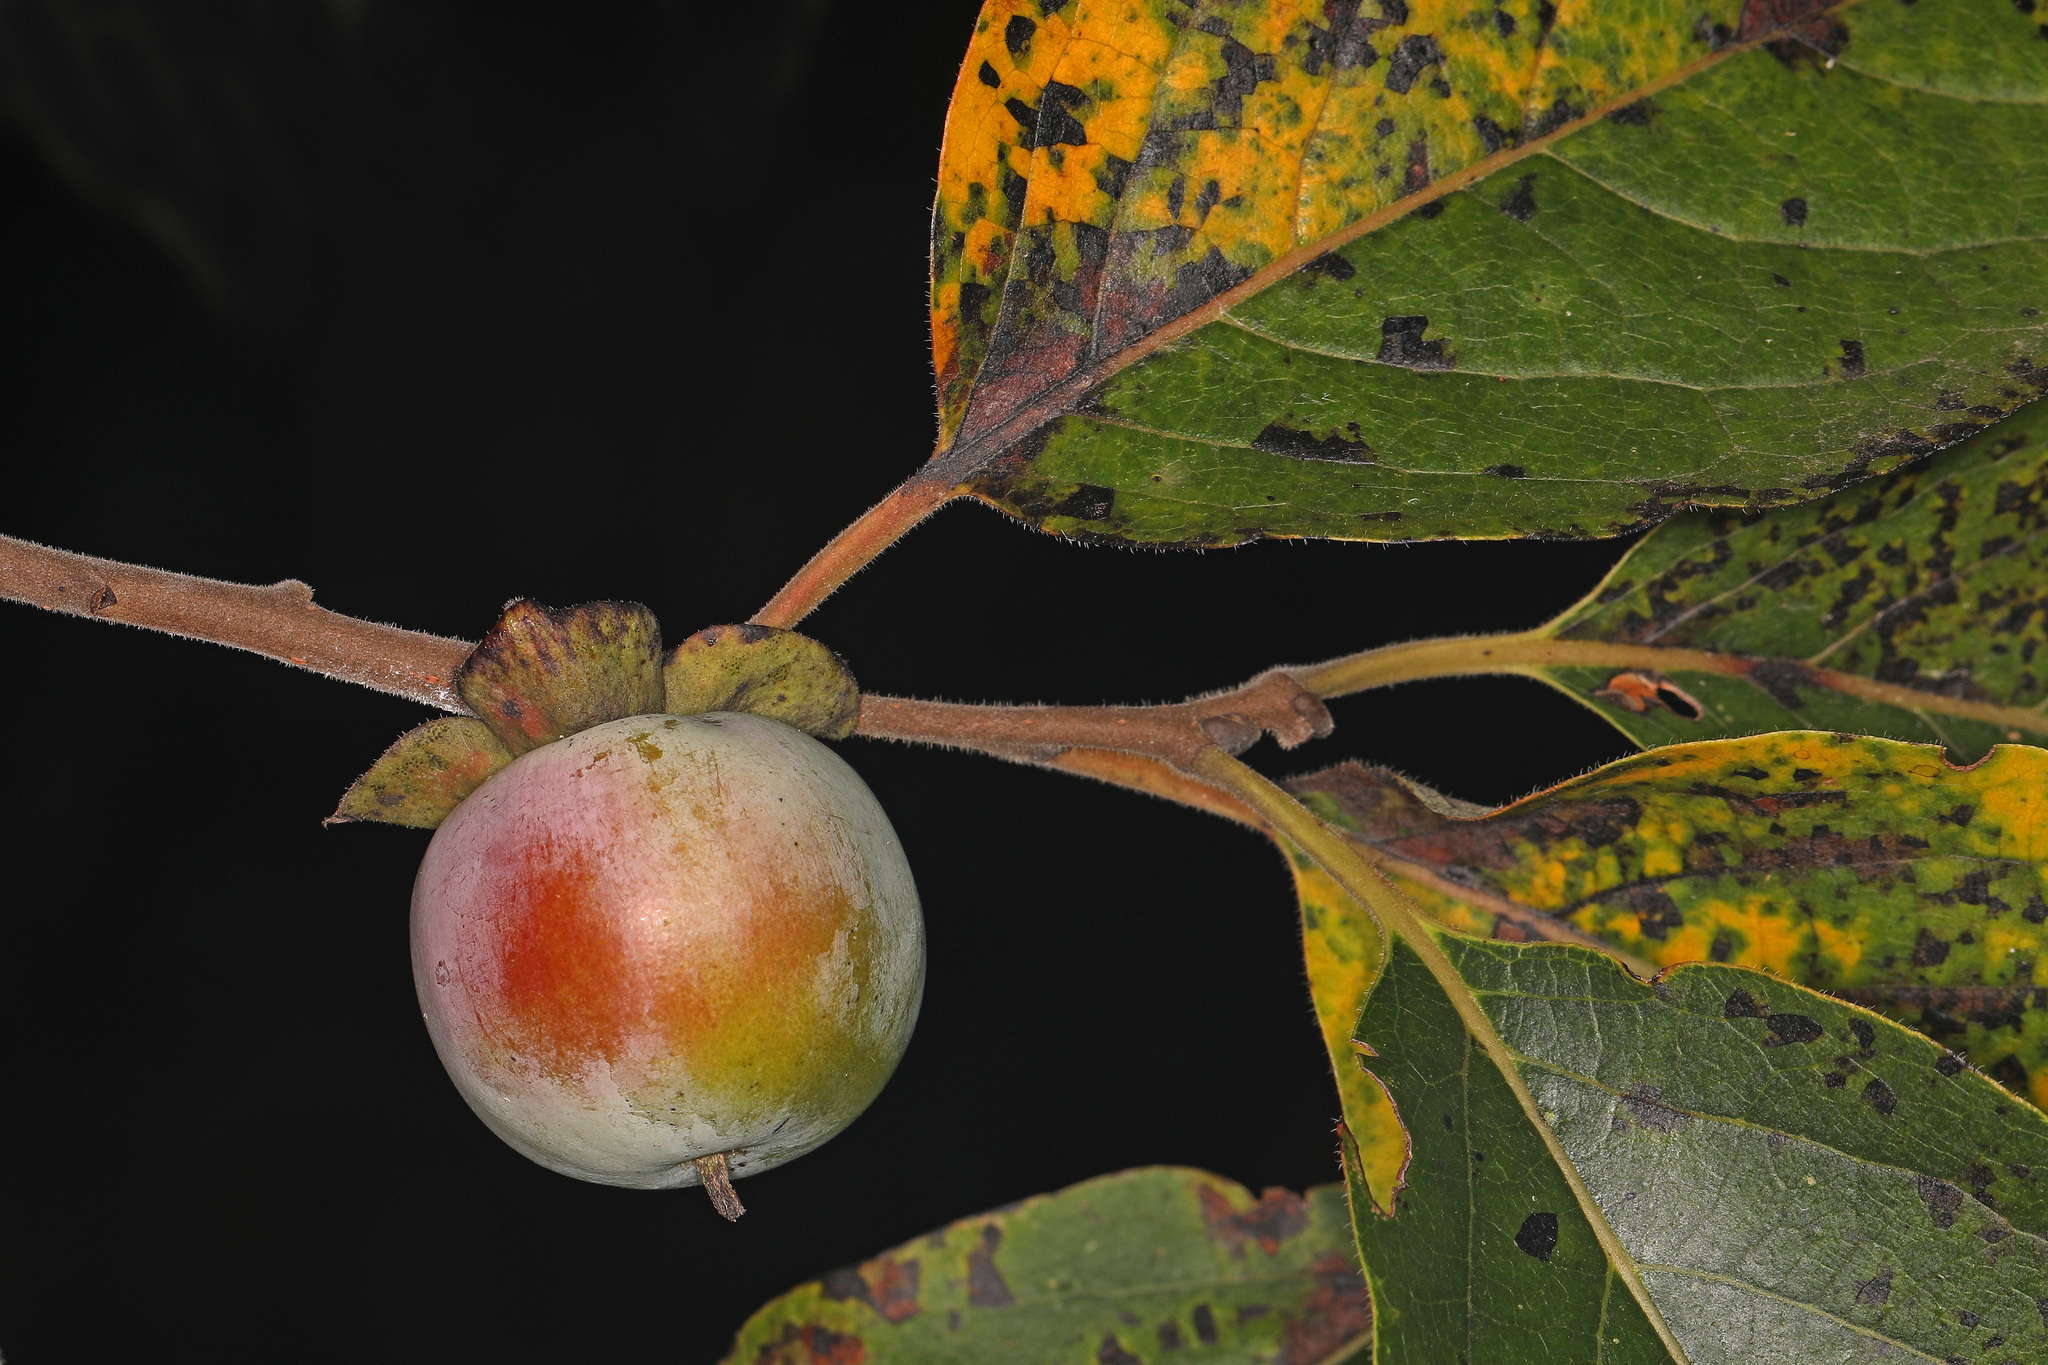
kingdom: Plantae
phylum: Tracheophyta
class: Magnoliopsida
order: Ericales
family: Ebenaceae
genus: Diospyros
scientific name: Diospyros virginiana
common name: Persimmon
